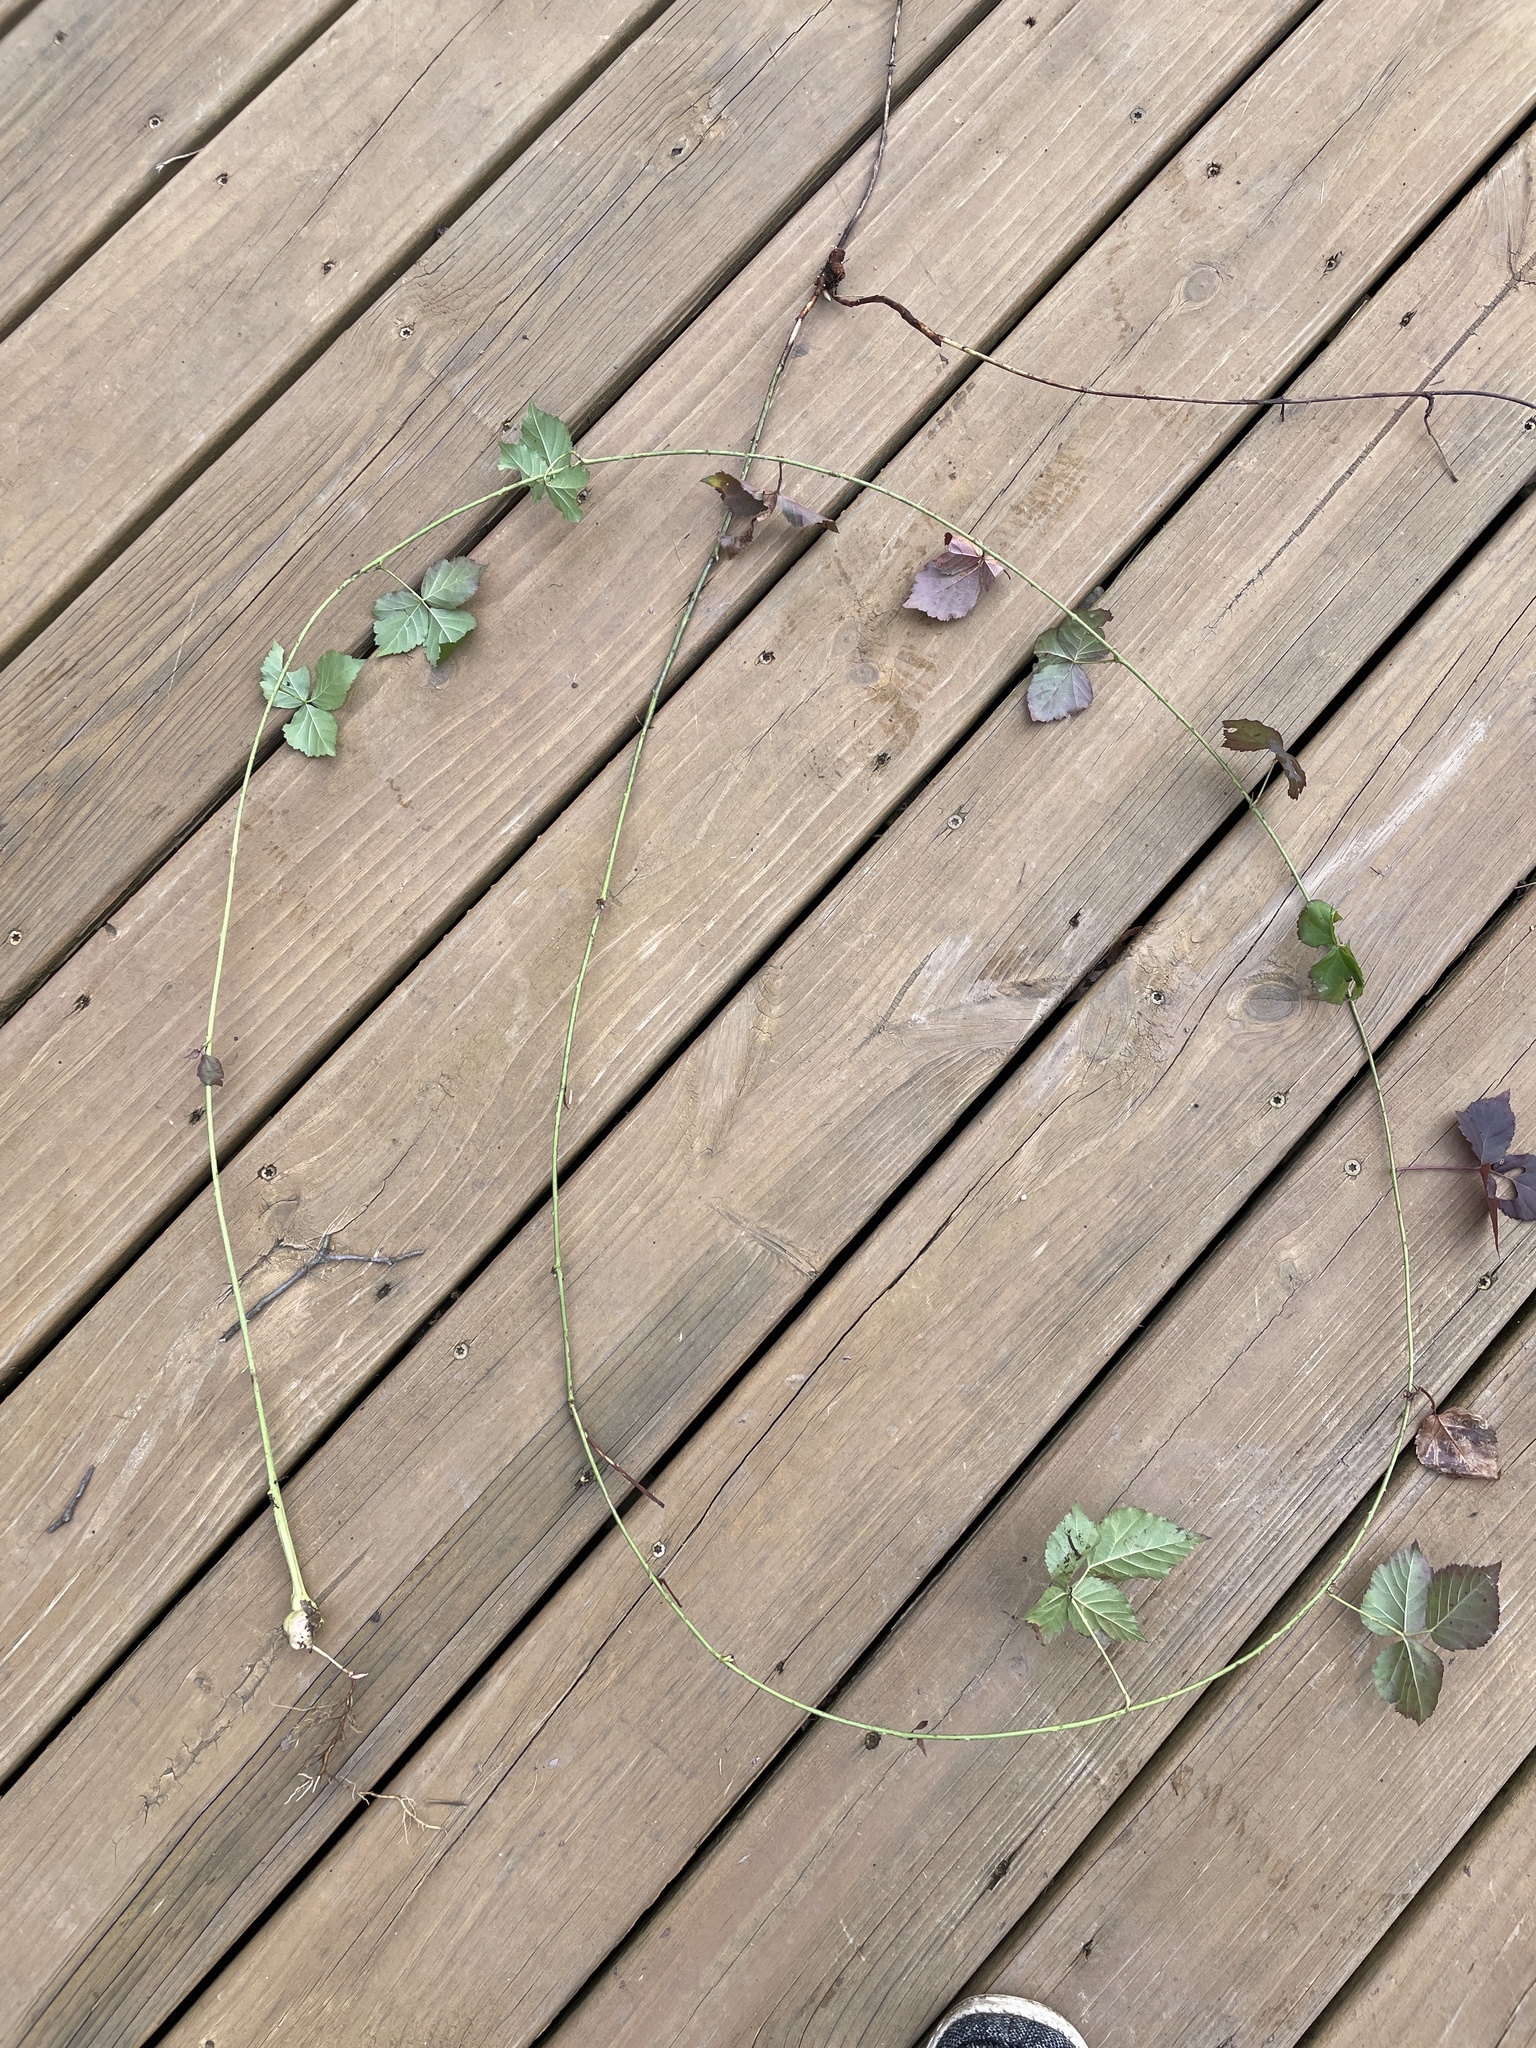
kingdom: Plantae
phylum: Tracheophyta
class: Magnoliopsida
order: Rosales
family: Rosaceae
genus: Rubus
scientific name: Rubus flagellaris
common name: American dewberry
